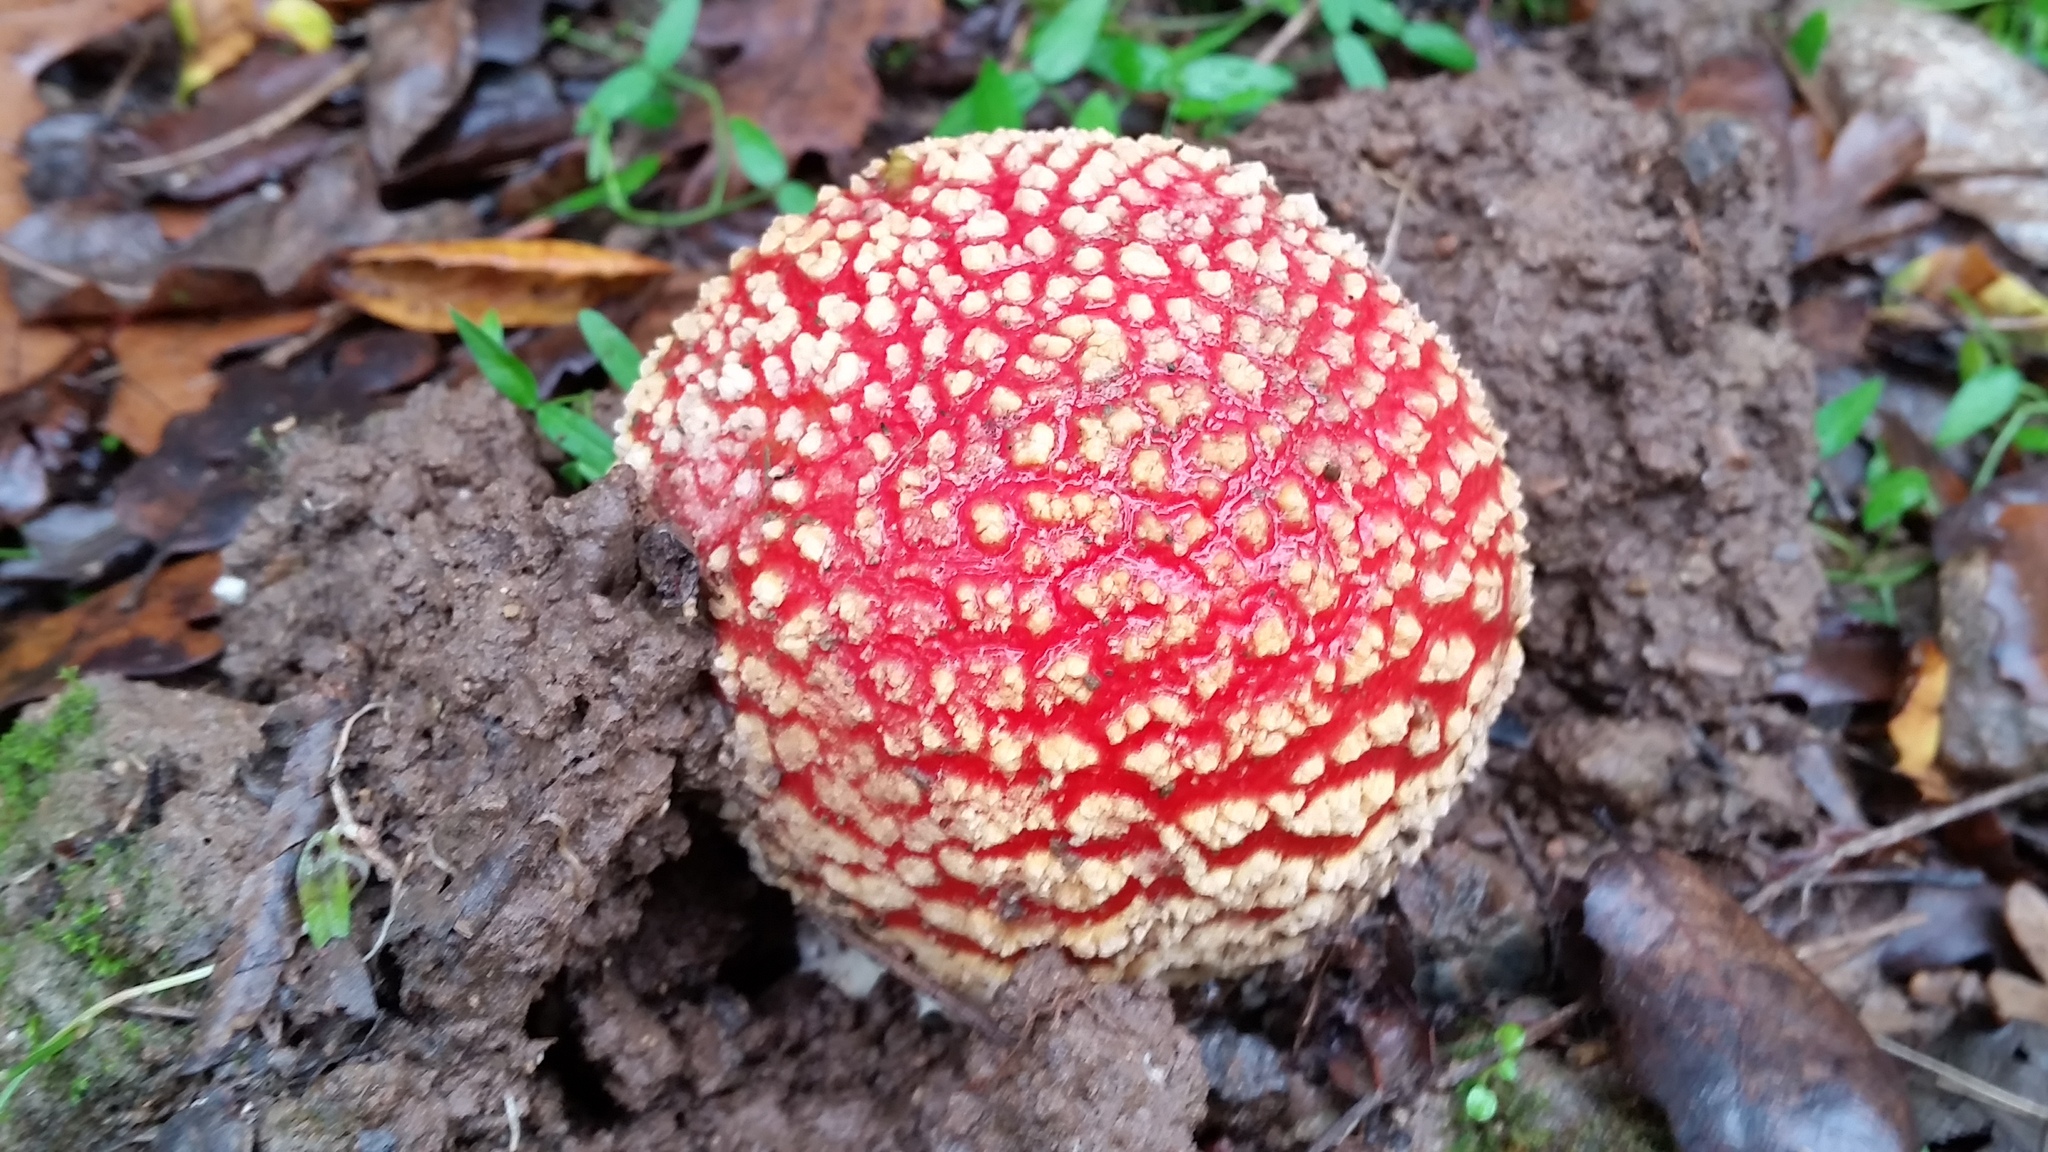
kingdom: Fungi
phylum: Basidiomycota
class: Agaricomycetes
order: Agaricales
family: Amanitaceae
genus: Amanita
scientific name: Amanita muscaria
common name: Fly agaric
